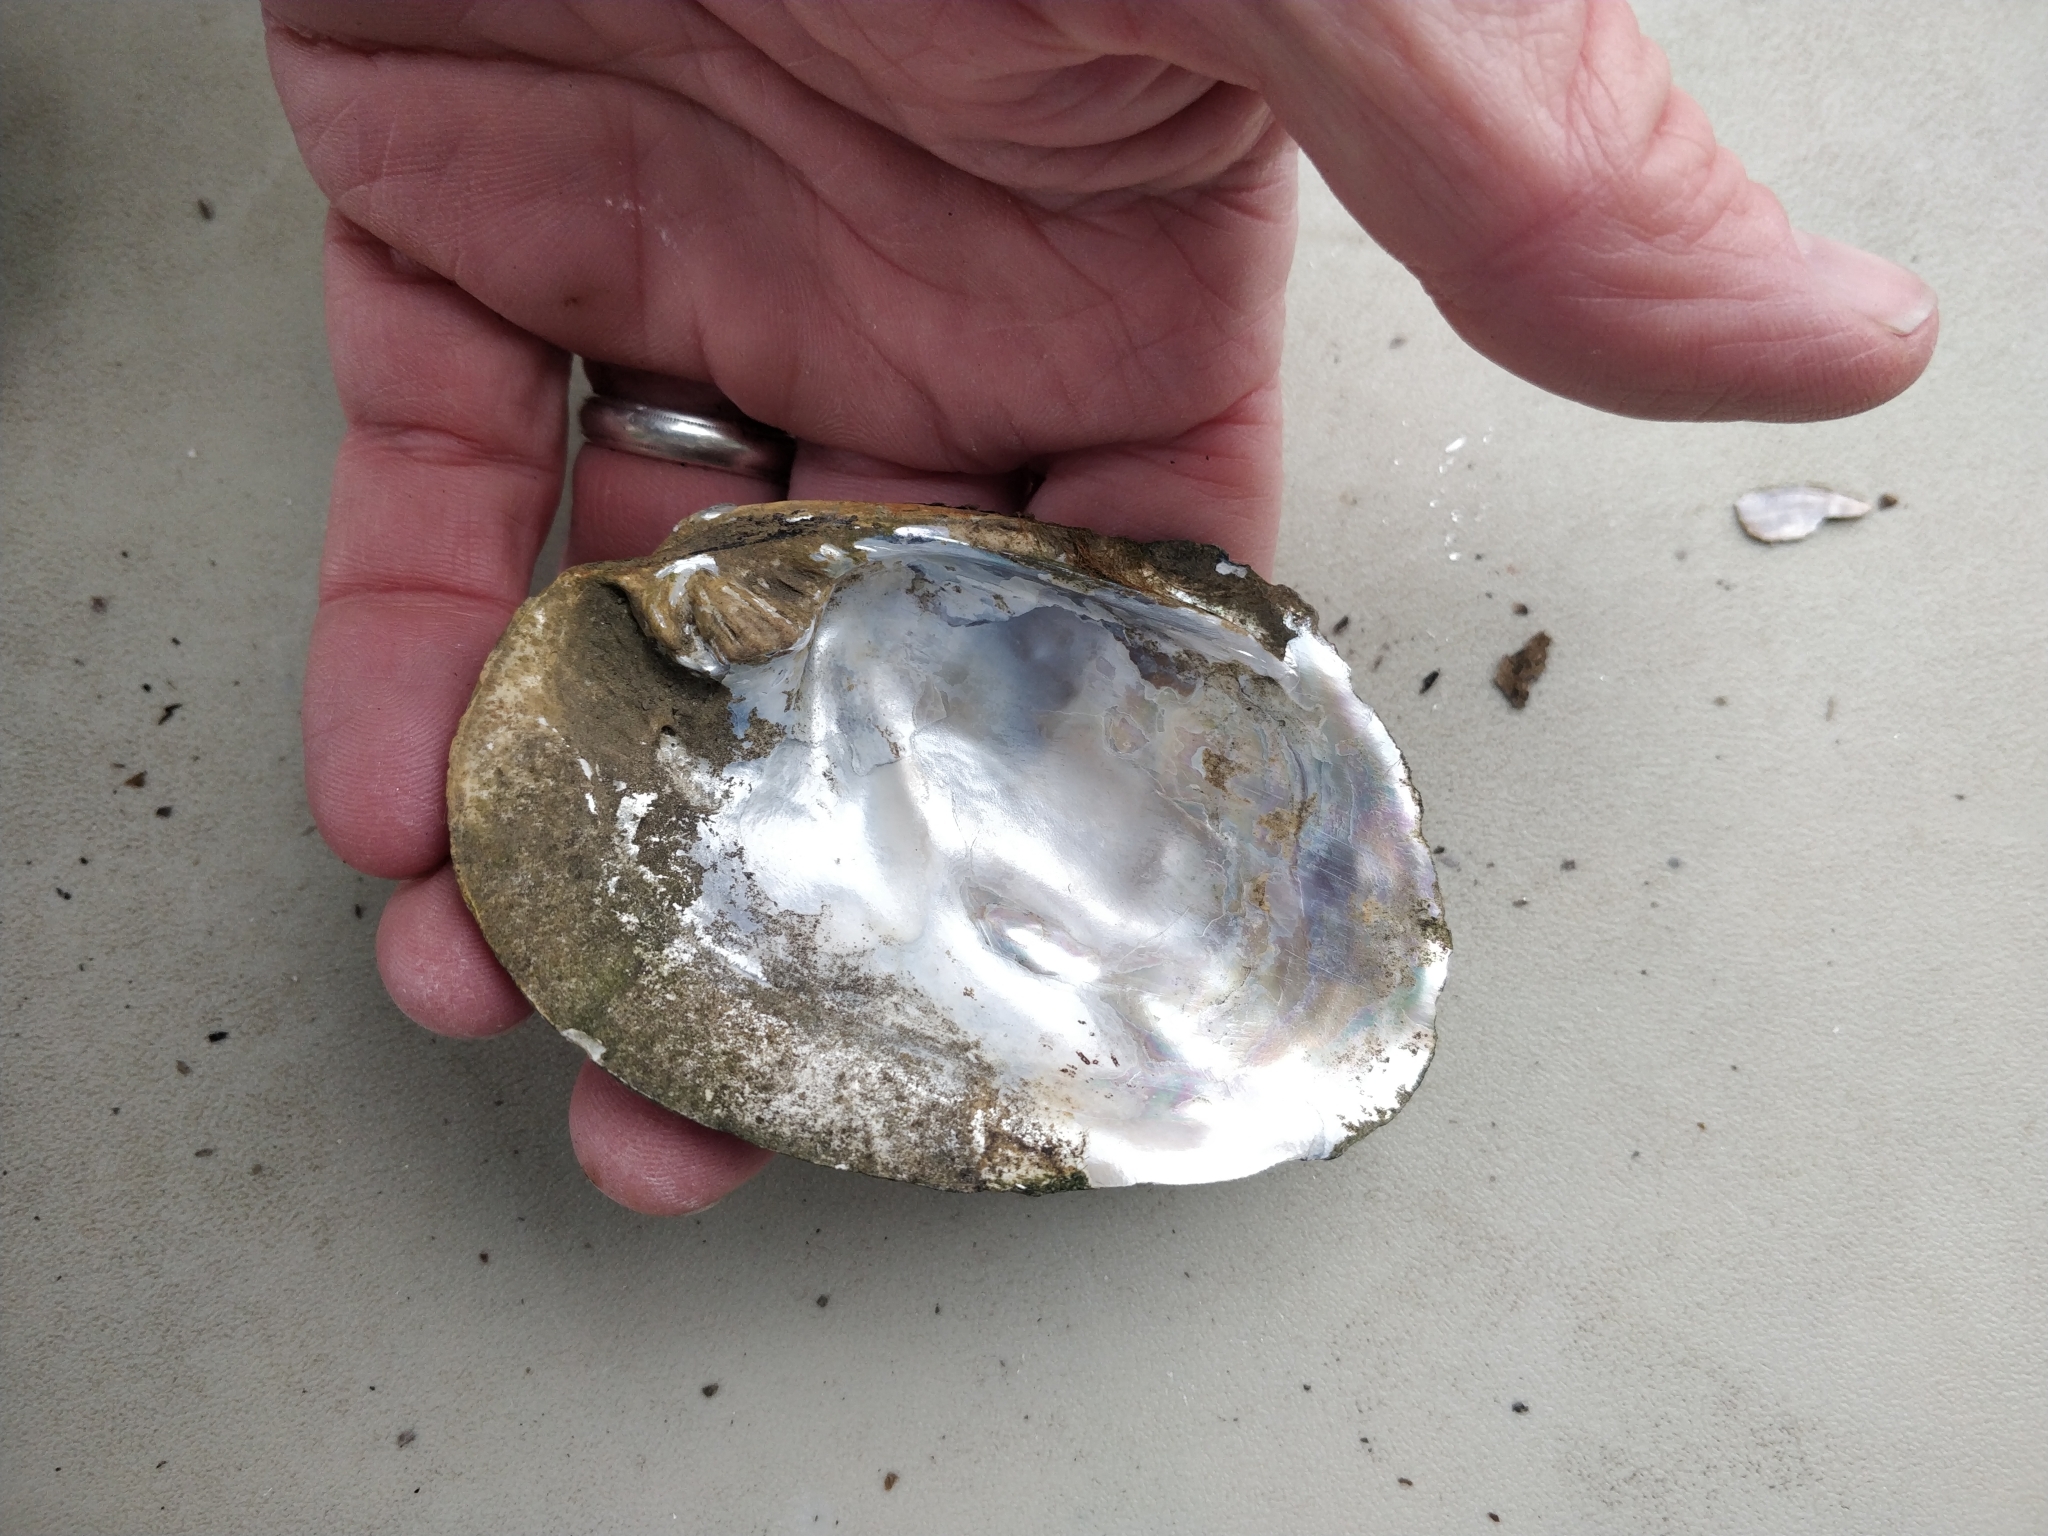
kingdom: Animalia
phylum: Mollusca
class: Bivalvia
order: Unionida
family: Unionidae
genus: Amblema
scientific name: Amblema plicata
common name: Threeridge
